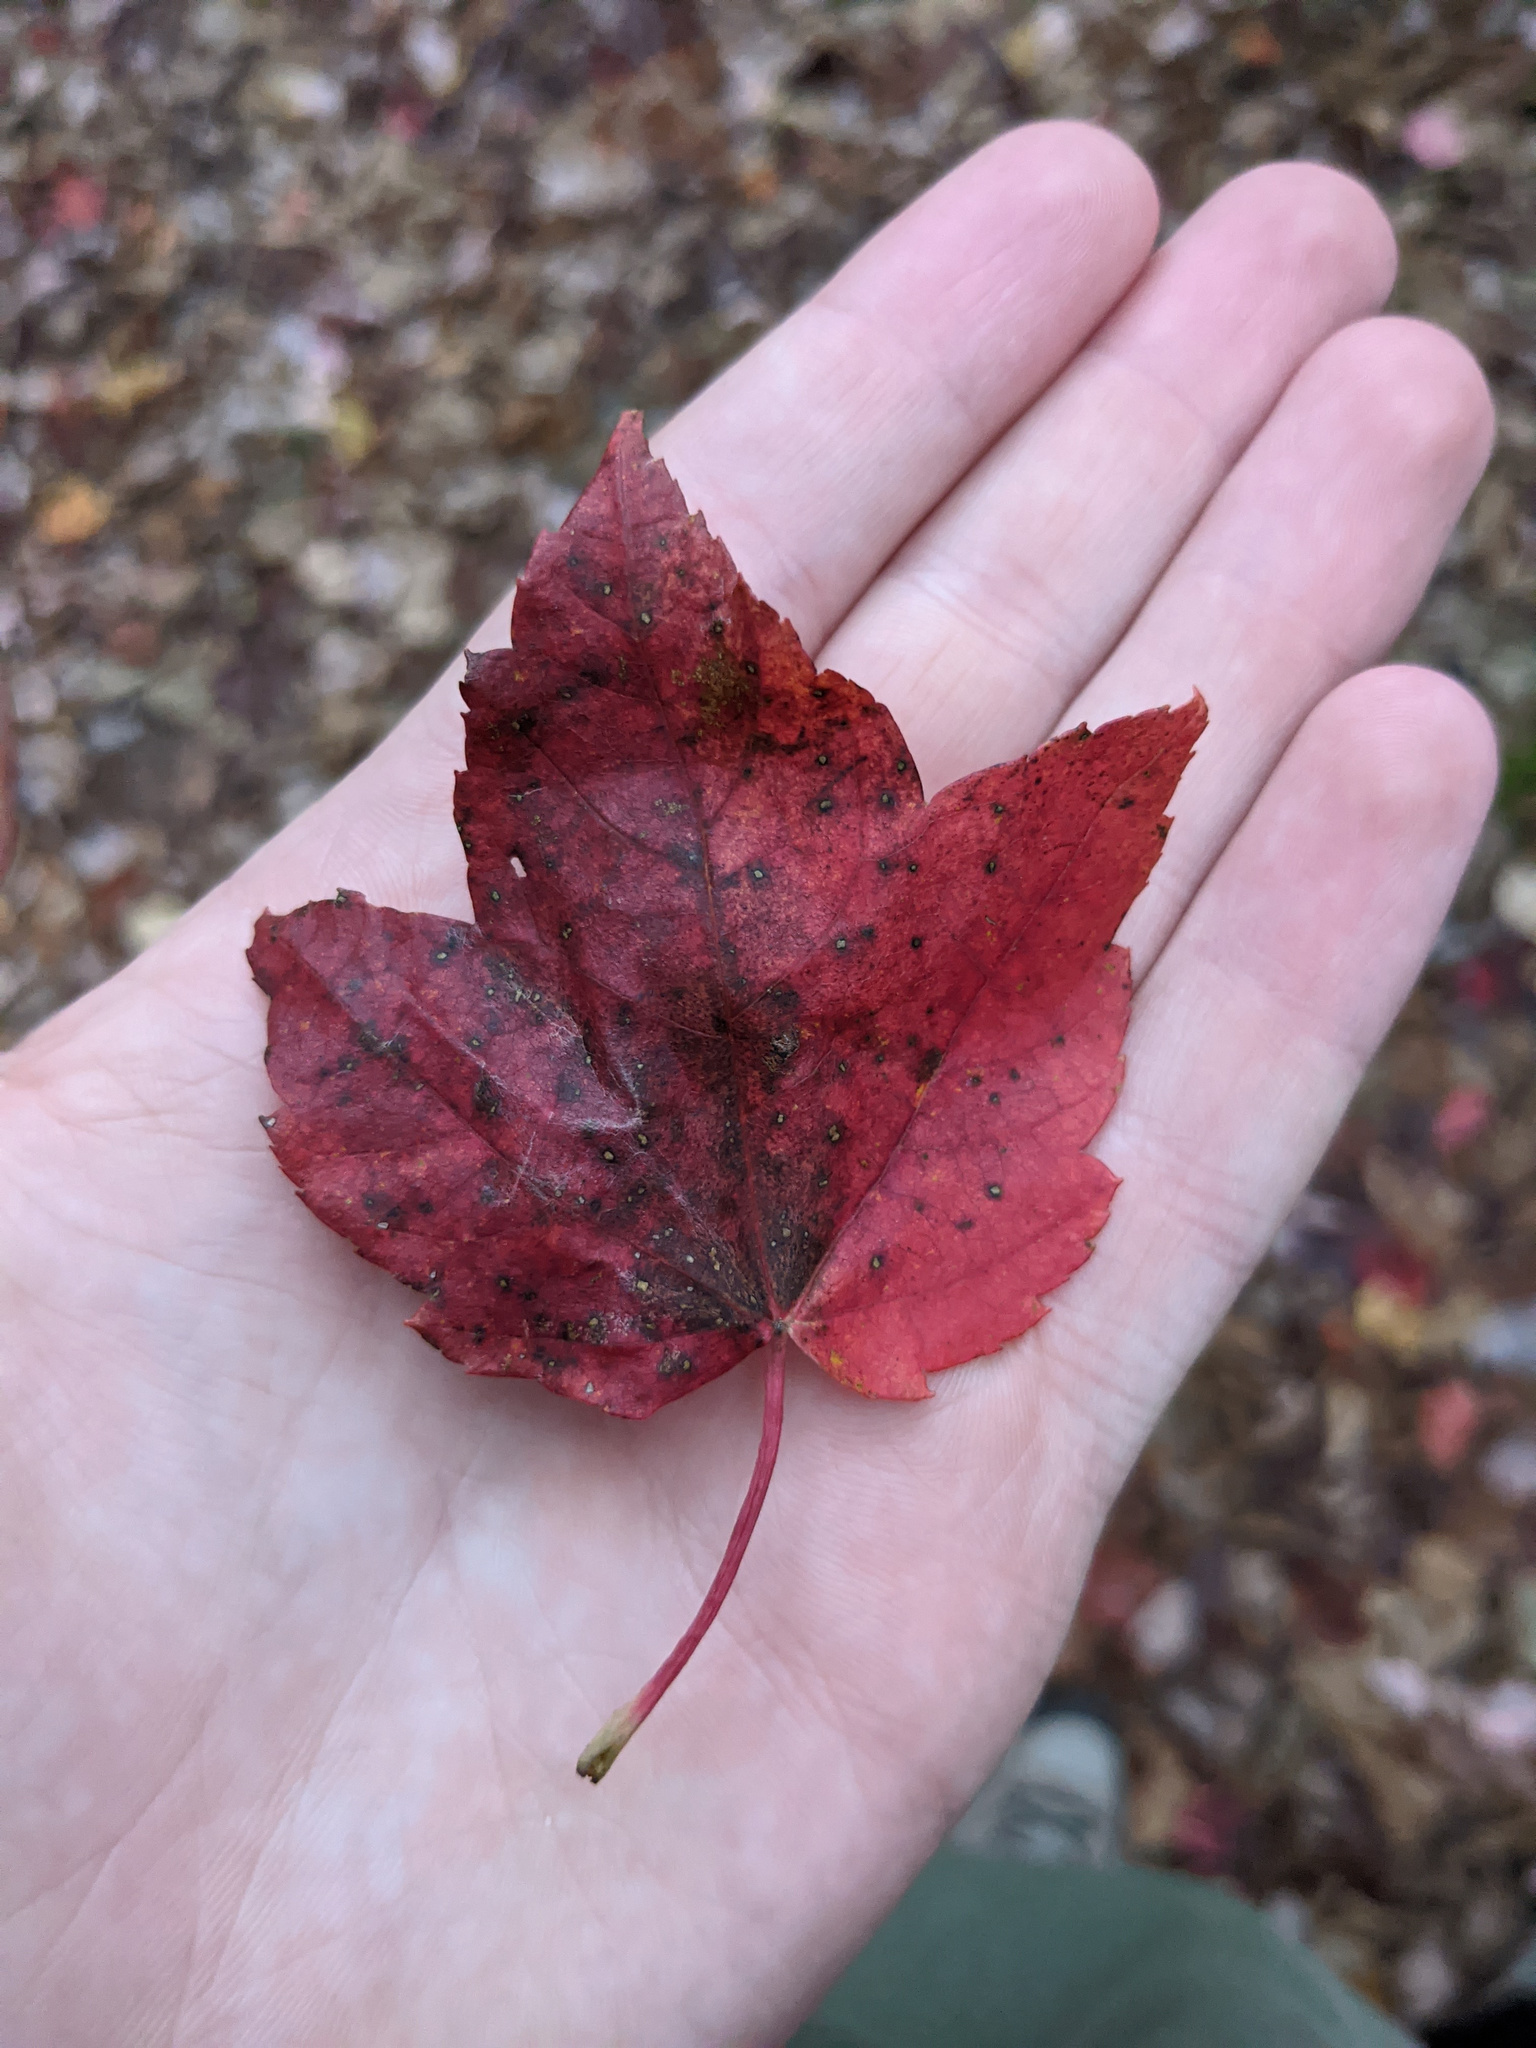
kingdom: Plantae
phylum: Tracheophyta
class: Magnoliopsida
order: Sapindales
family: Sapindaceae
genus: Acer
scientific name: Acer rubrum
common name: Red maple
